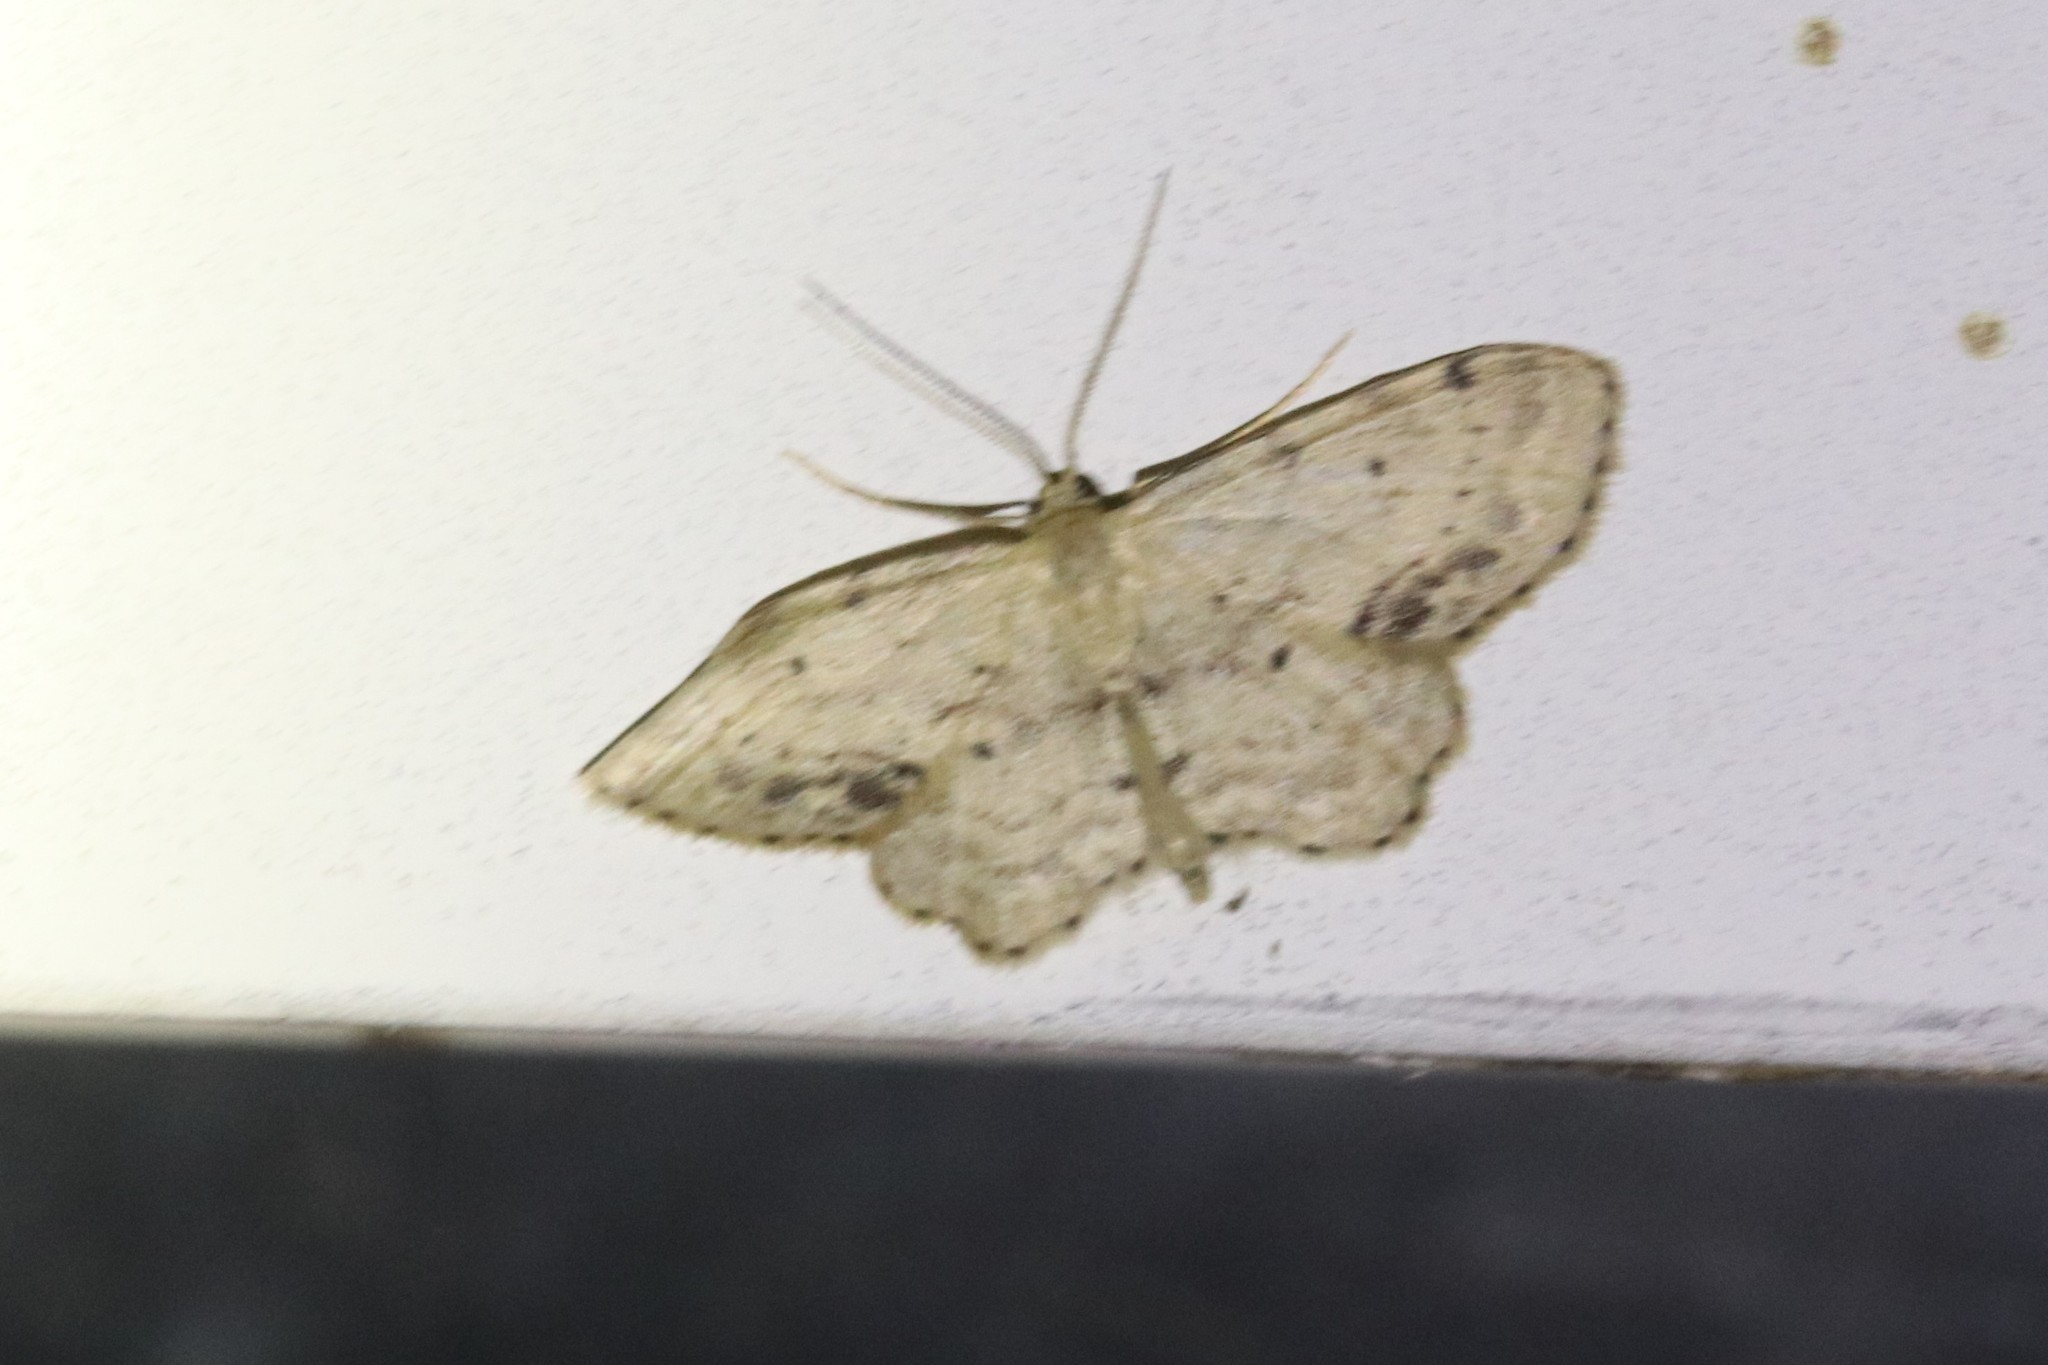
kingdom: Animalia
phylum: Arthropoda
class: Insecta
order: Lepidoptera
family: Geometridae
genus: Idaea
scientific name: Idaea dimidiata
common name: Single-dotted wave
